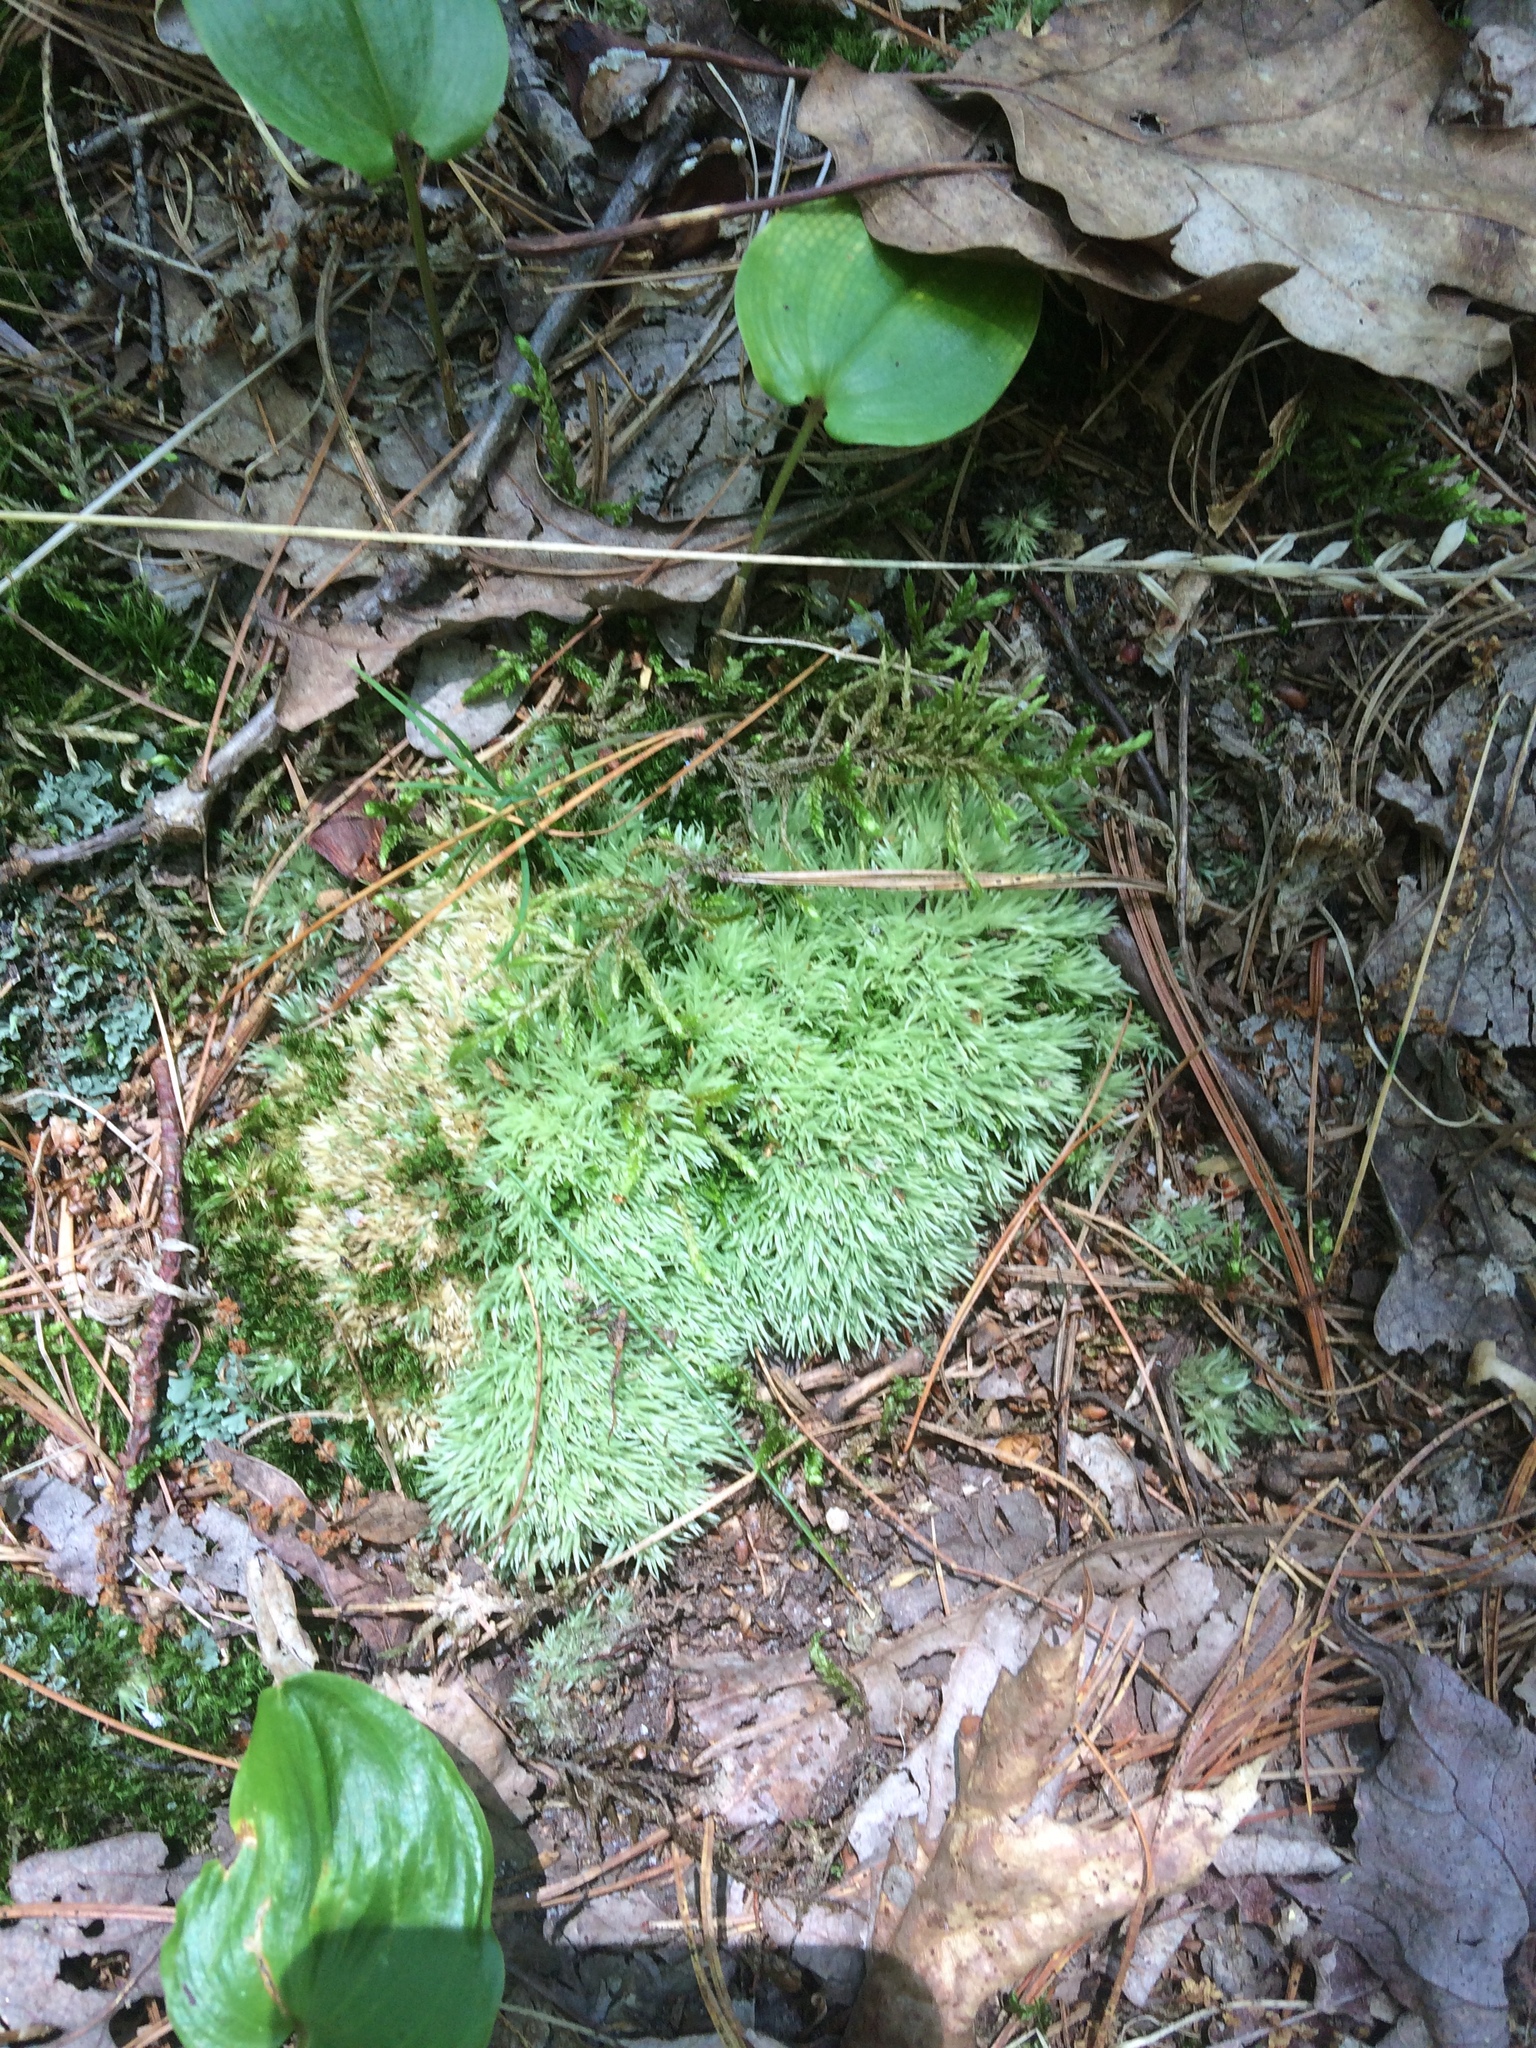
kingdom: Plantae
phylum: Bryophyta
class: Bryopsida
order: Dicranales
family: Leucobryaceae
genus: Leucobryum
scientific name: Leucobryum glaucum
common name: Large white-moss
